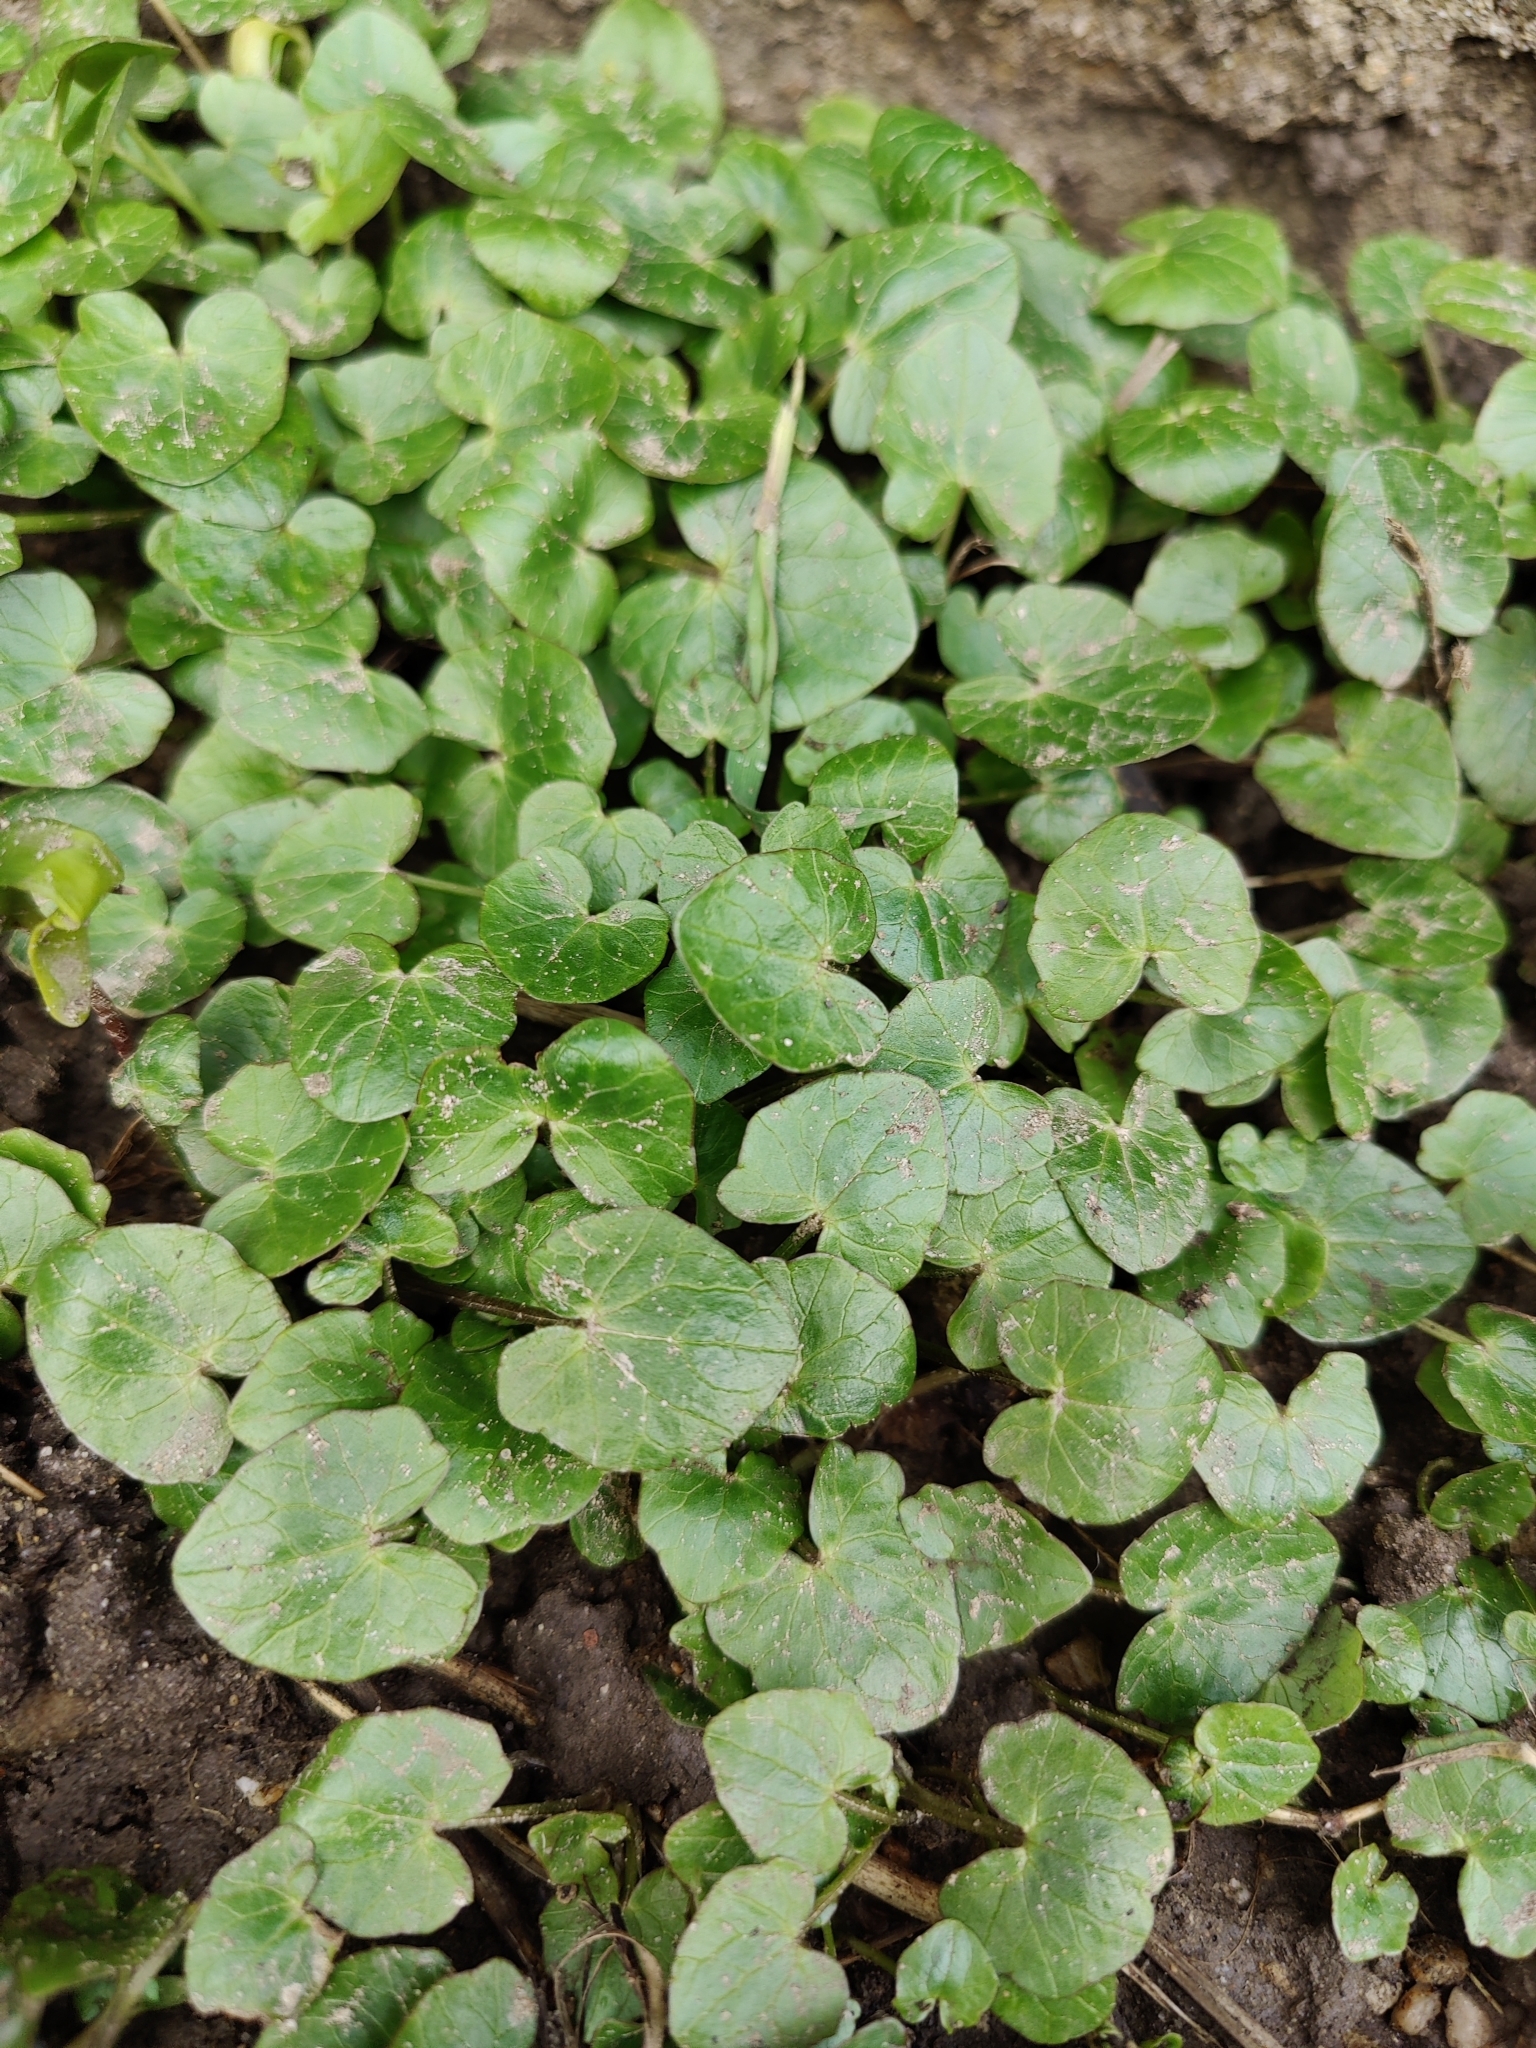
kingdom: Plantae
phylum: Tracheophyta
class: Magnoliopsida
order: Ranunculales
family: Ranunculaceae
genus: Ficaria
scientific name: Ficaria verna
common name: Lesser celandine
